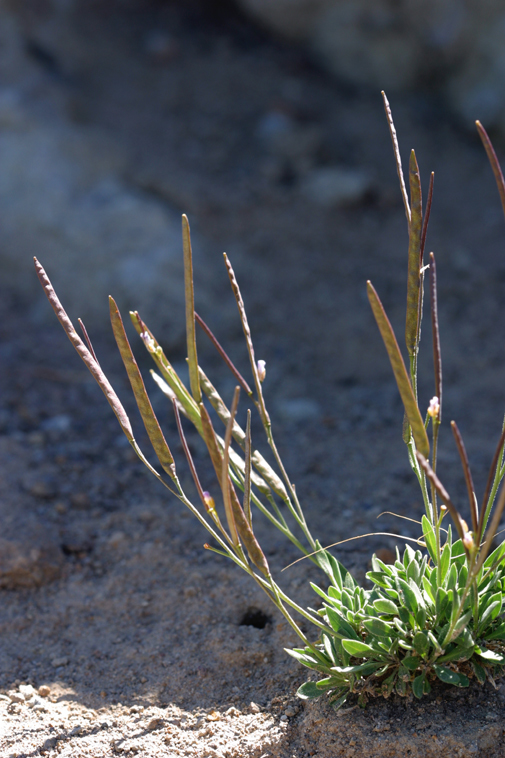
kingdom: Plantae
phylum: Tracheophyta
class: Magnoliopsida
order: Brassicales
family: Brassicaceae
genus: Boechera
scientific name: Boechera elkoensis
